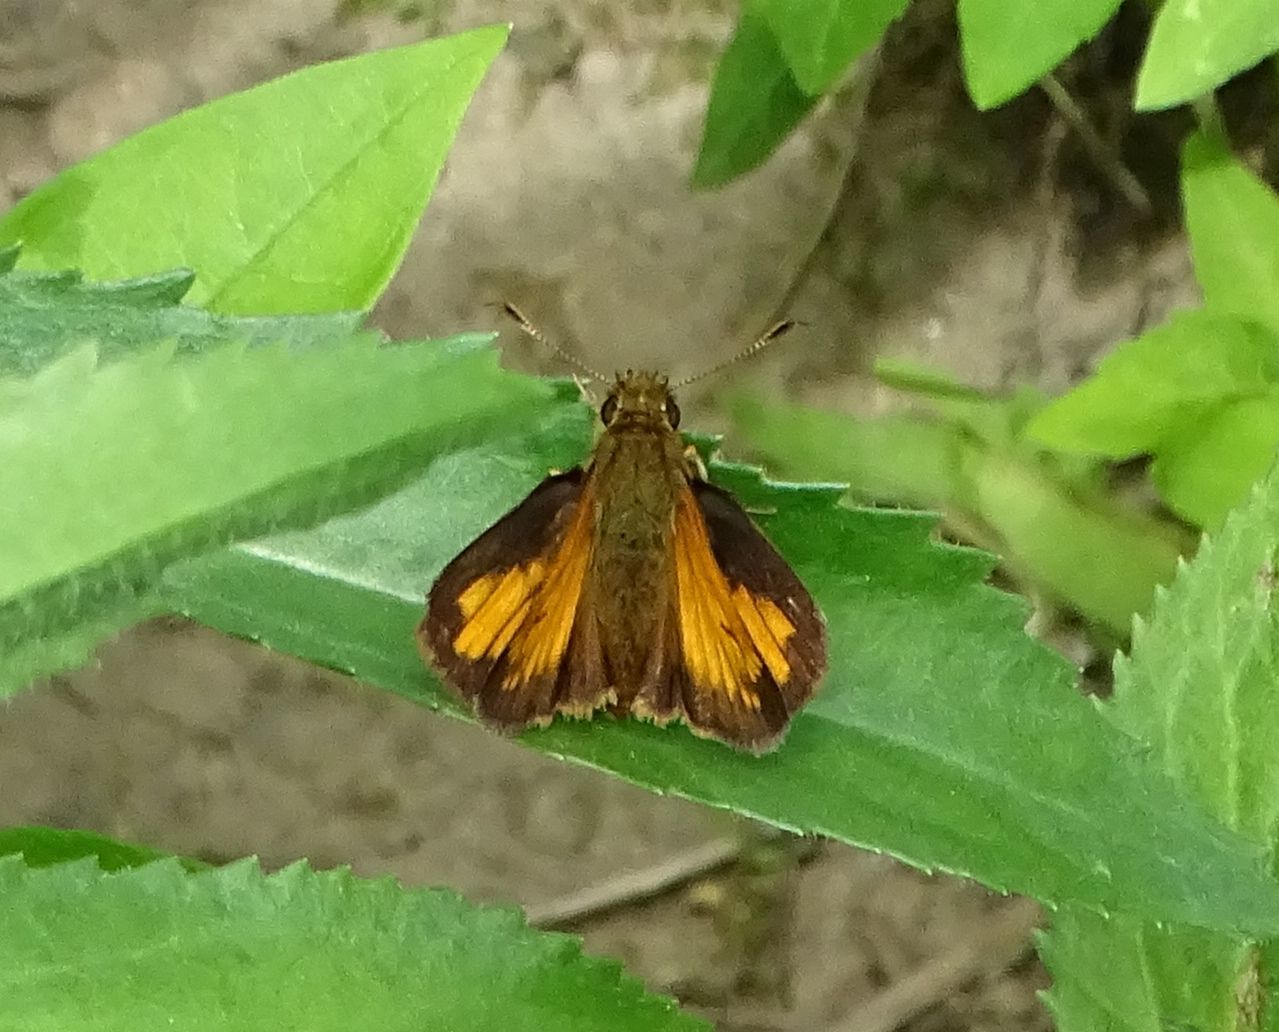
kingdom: Animalia
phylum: Arthropoda
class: Insecta
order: Lepidoptera
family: Hesperiidae
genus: Lon
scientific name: Lon hobomok
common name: Hobomok skipper
